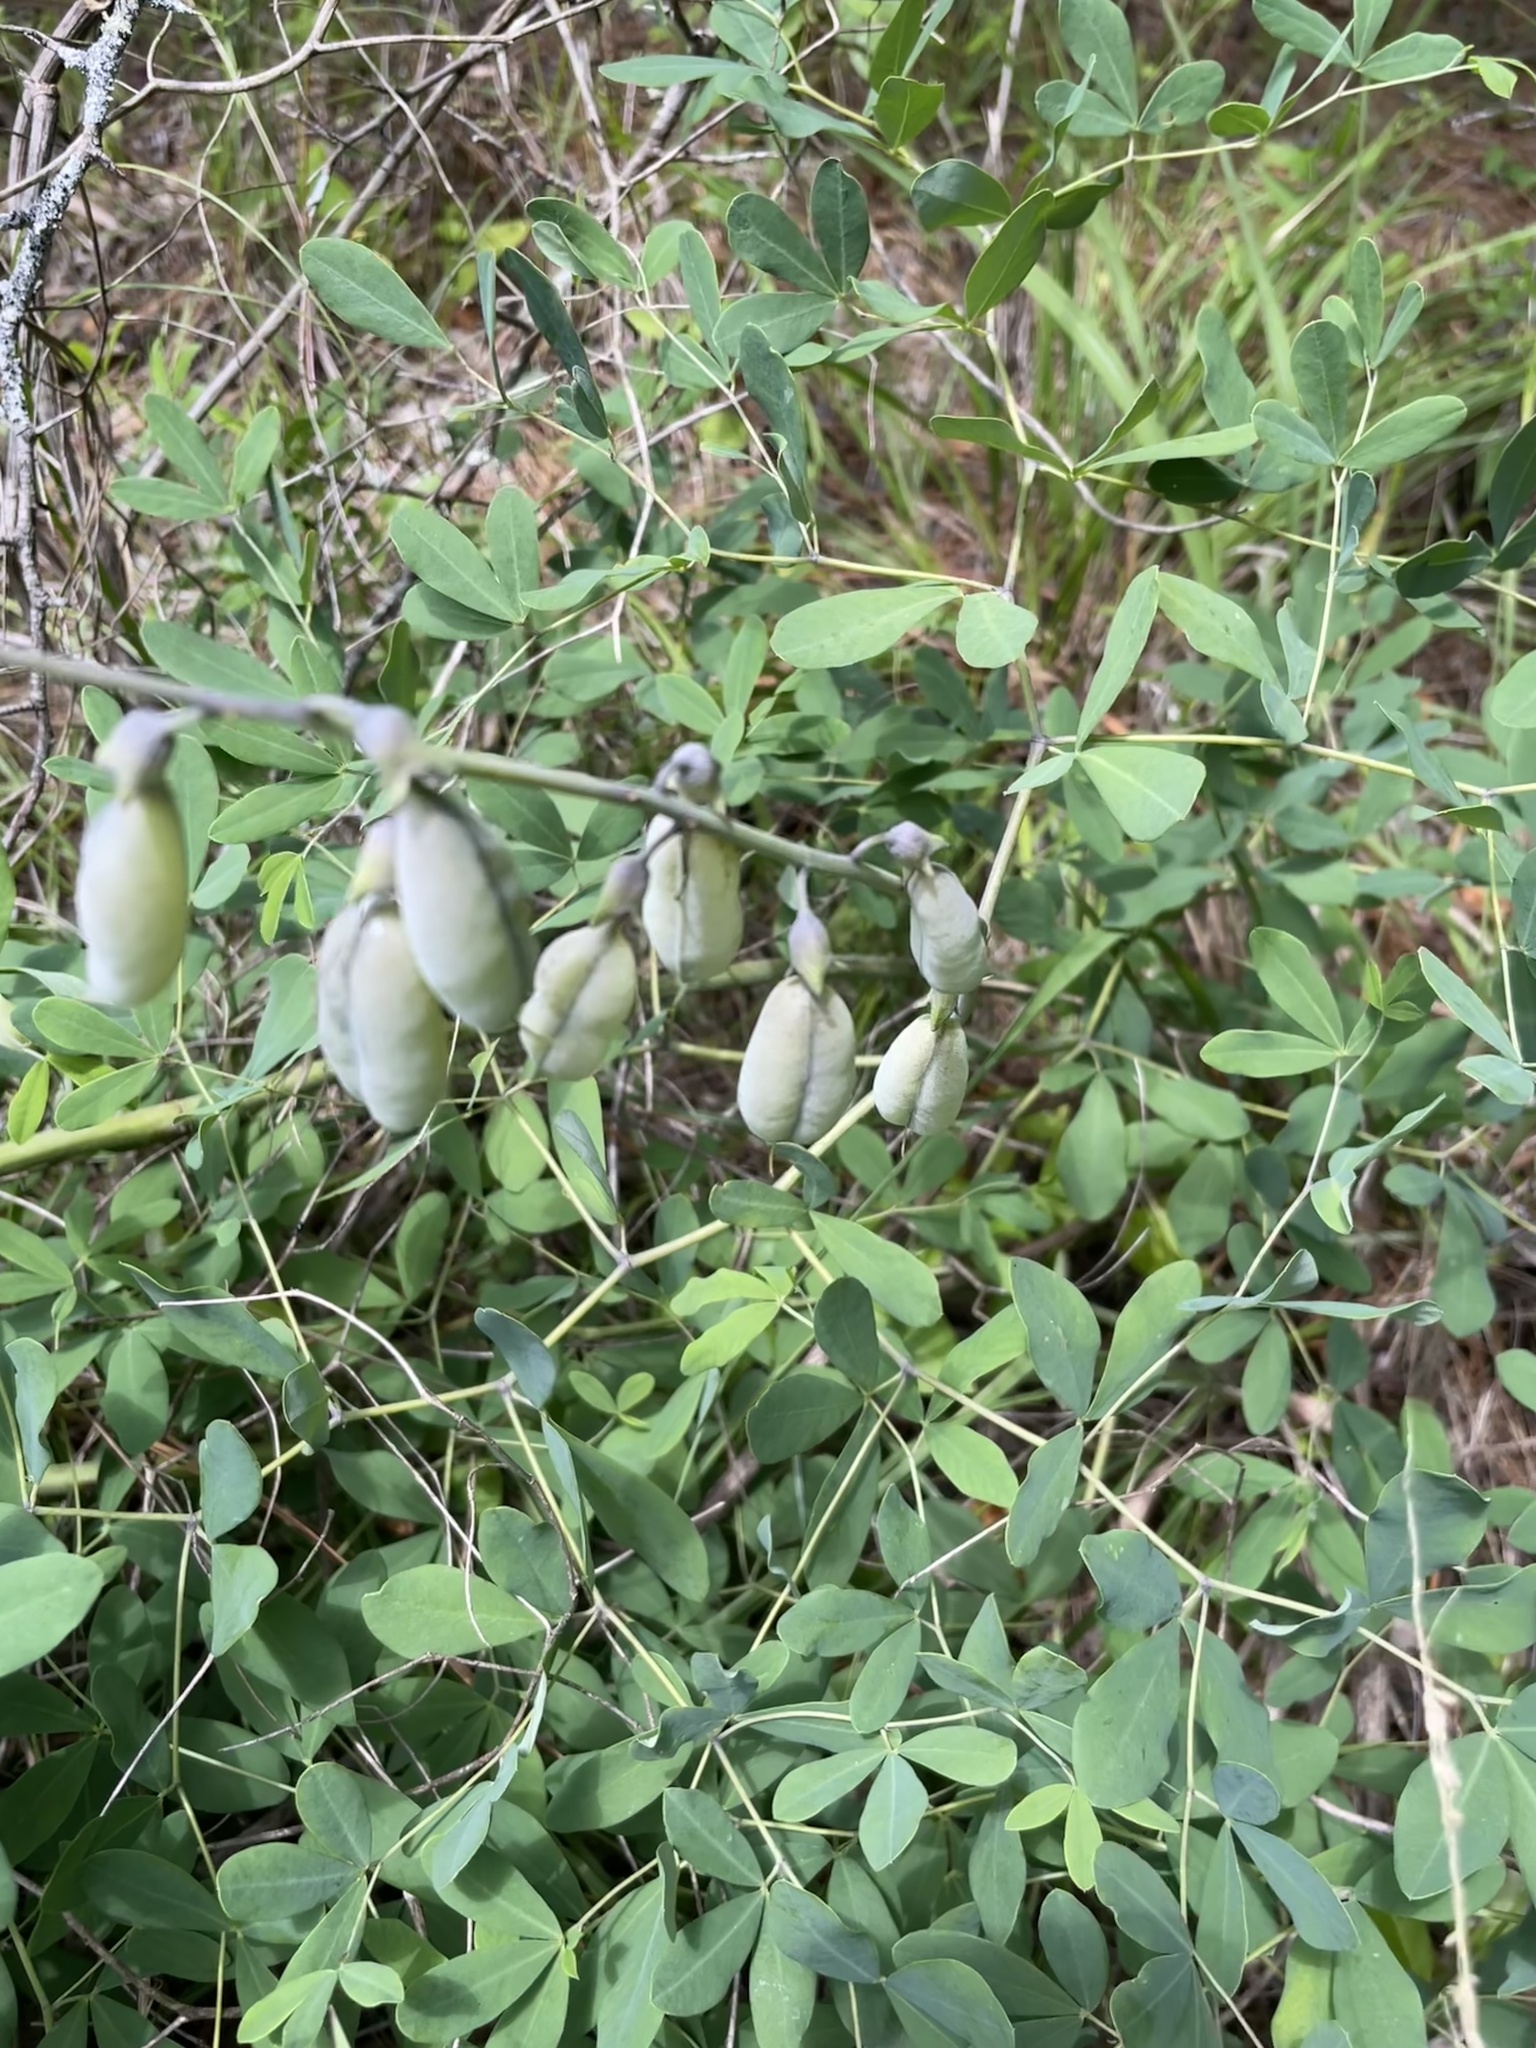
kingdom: Plantae
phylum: Tracheophyta
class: Magnoliopsida
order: Fabales
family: Fabaceae
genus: Baptisia
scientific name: Baptisia alba
